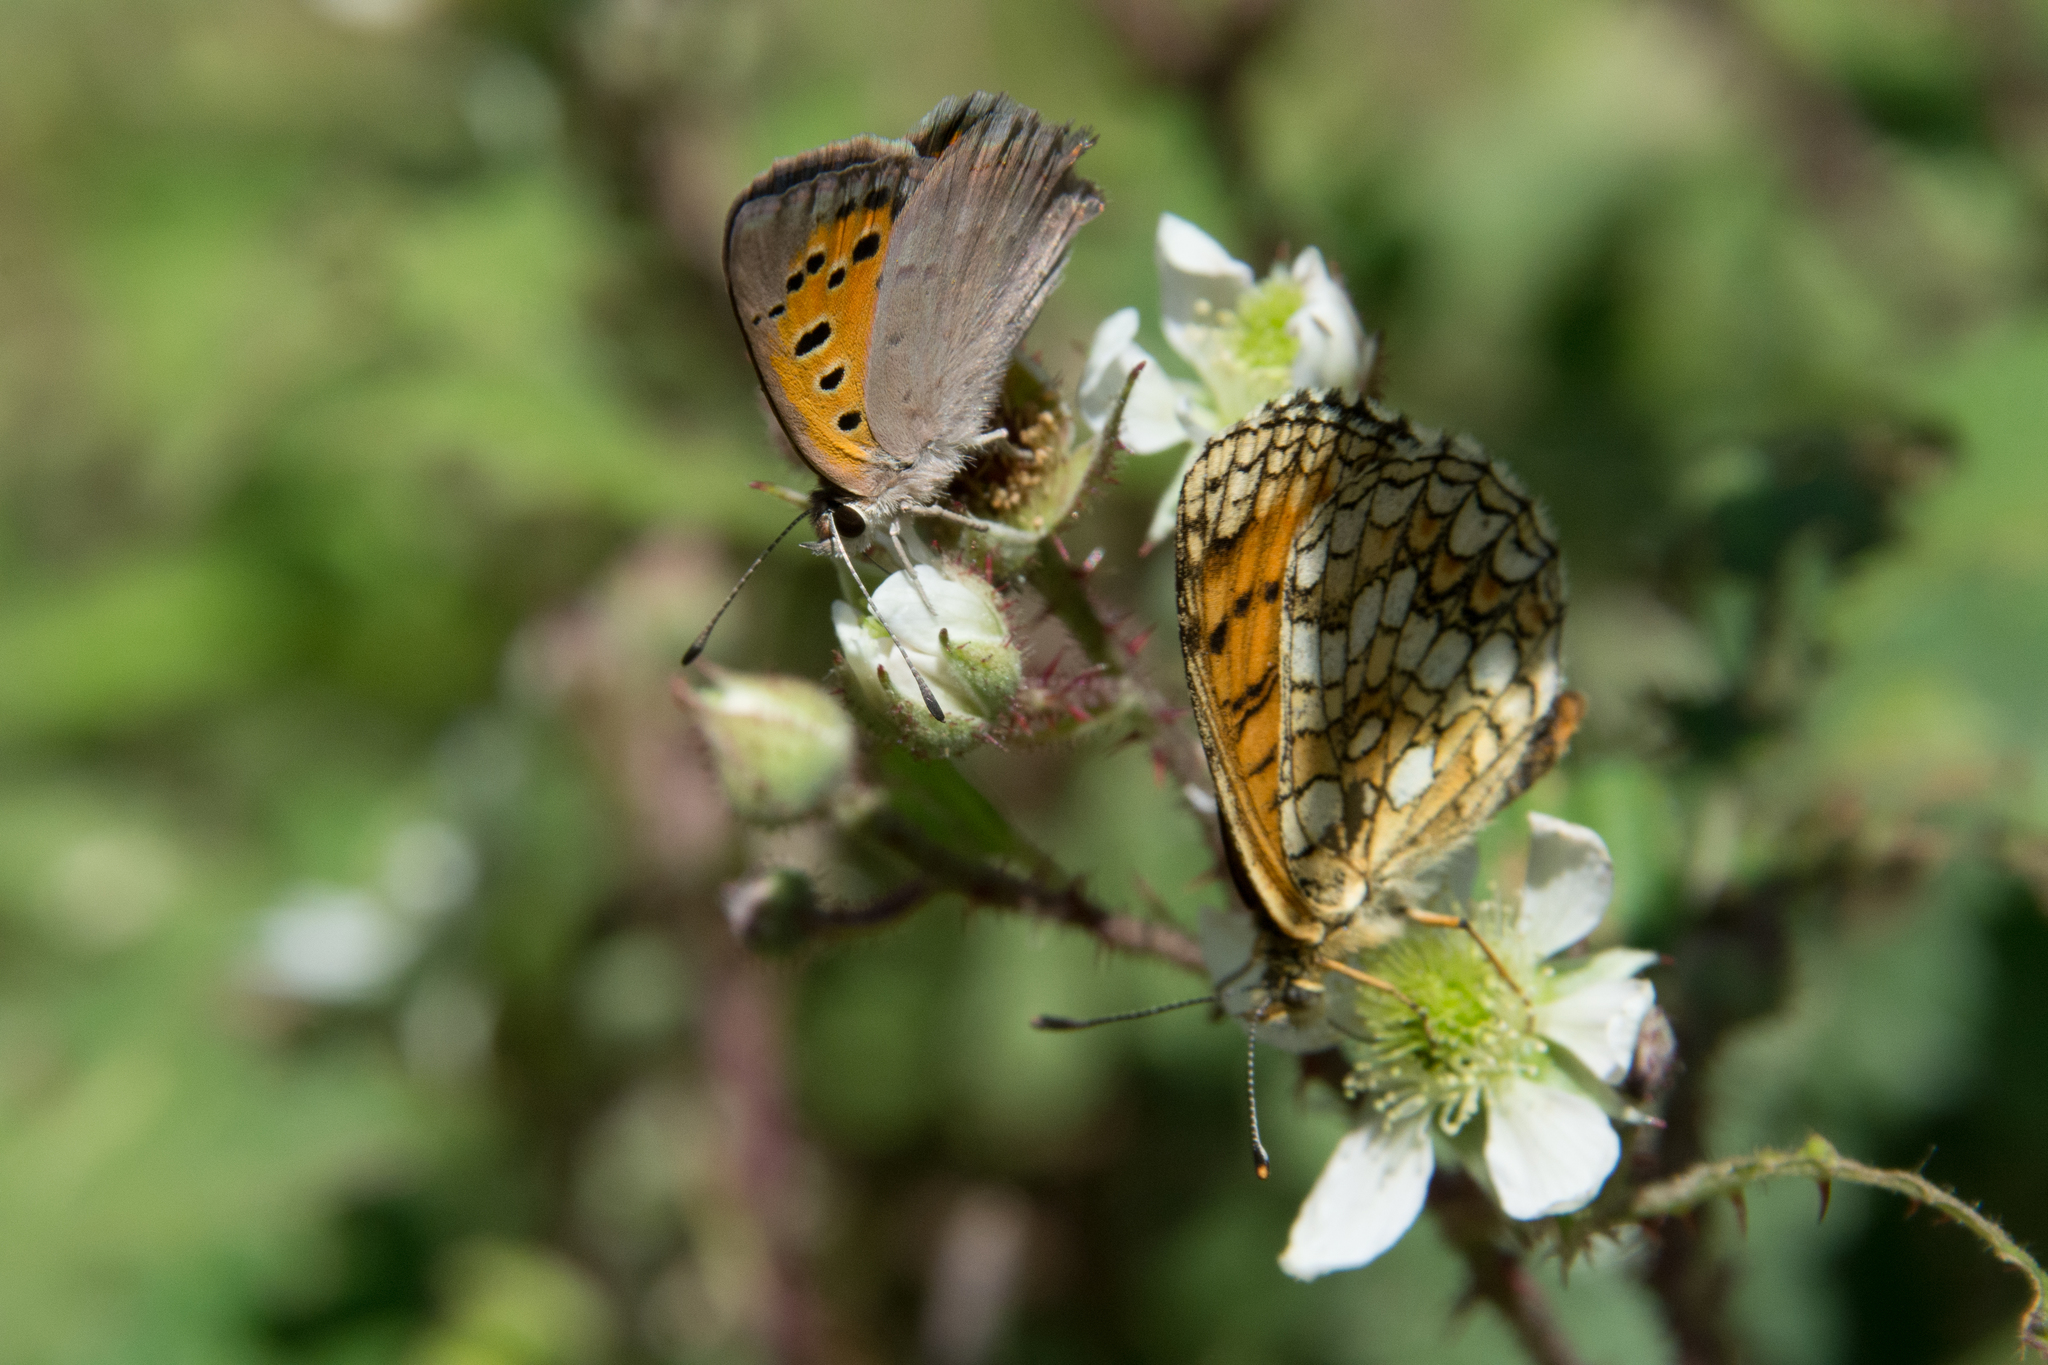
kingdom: Animalia
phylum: Arthropoda
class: Insecta
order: Lepidoptera
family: Lycaenidae
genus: Lycaena
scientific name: Lycaena phlaeas
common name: Small copper
